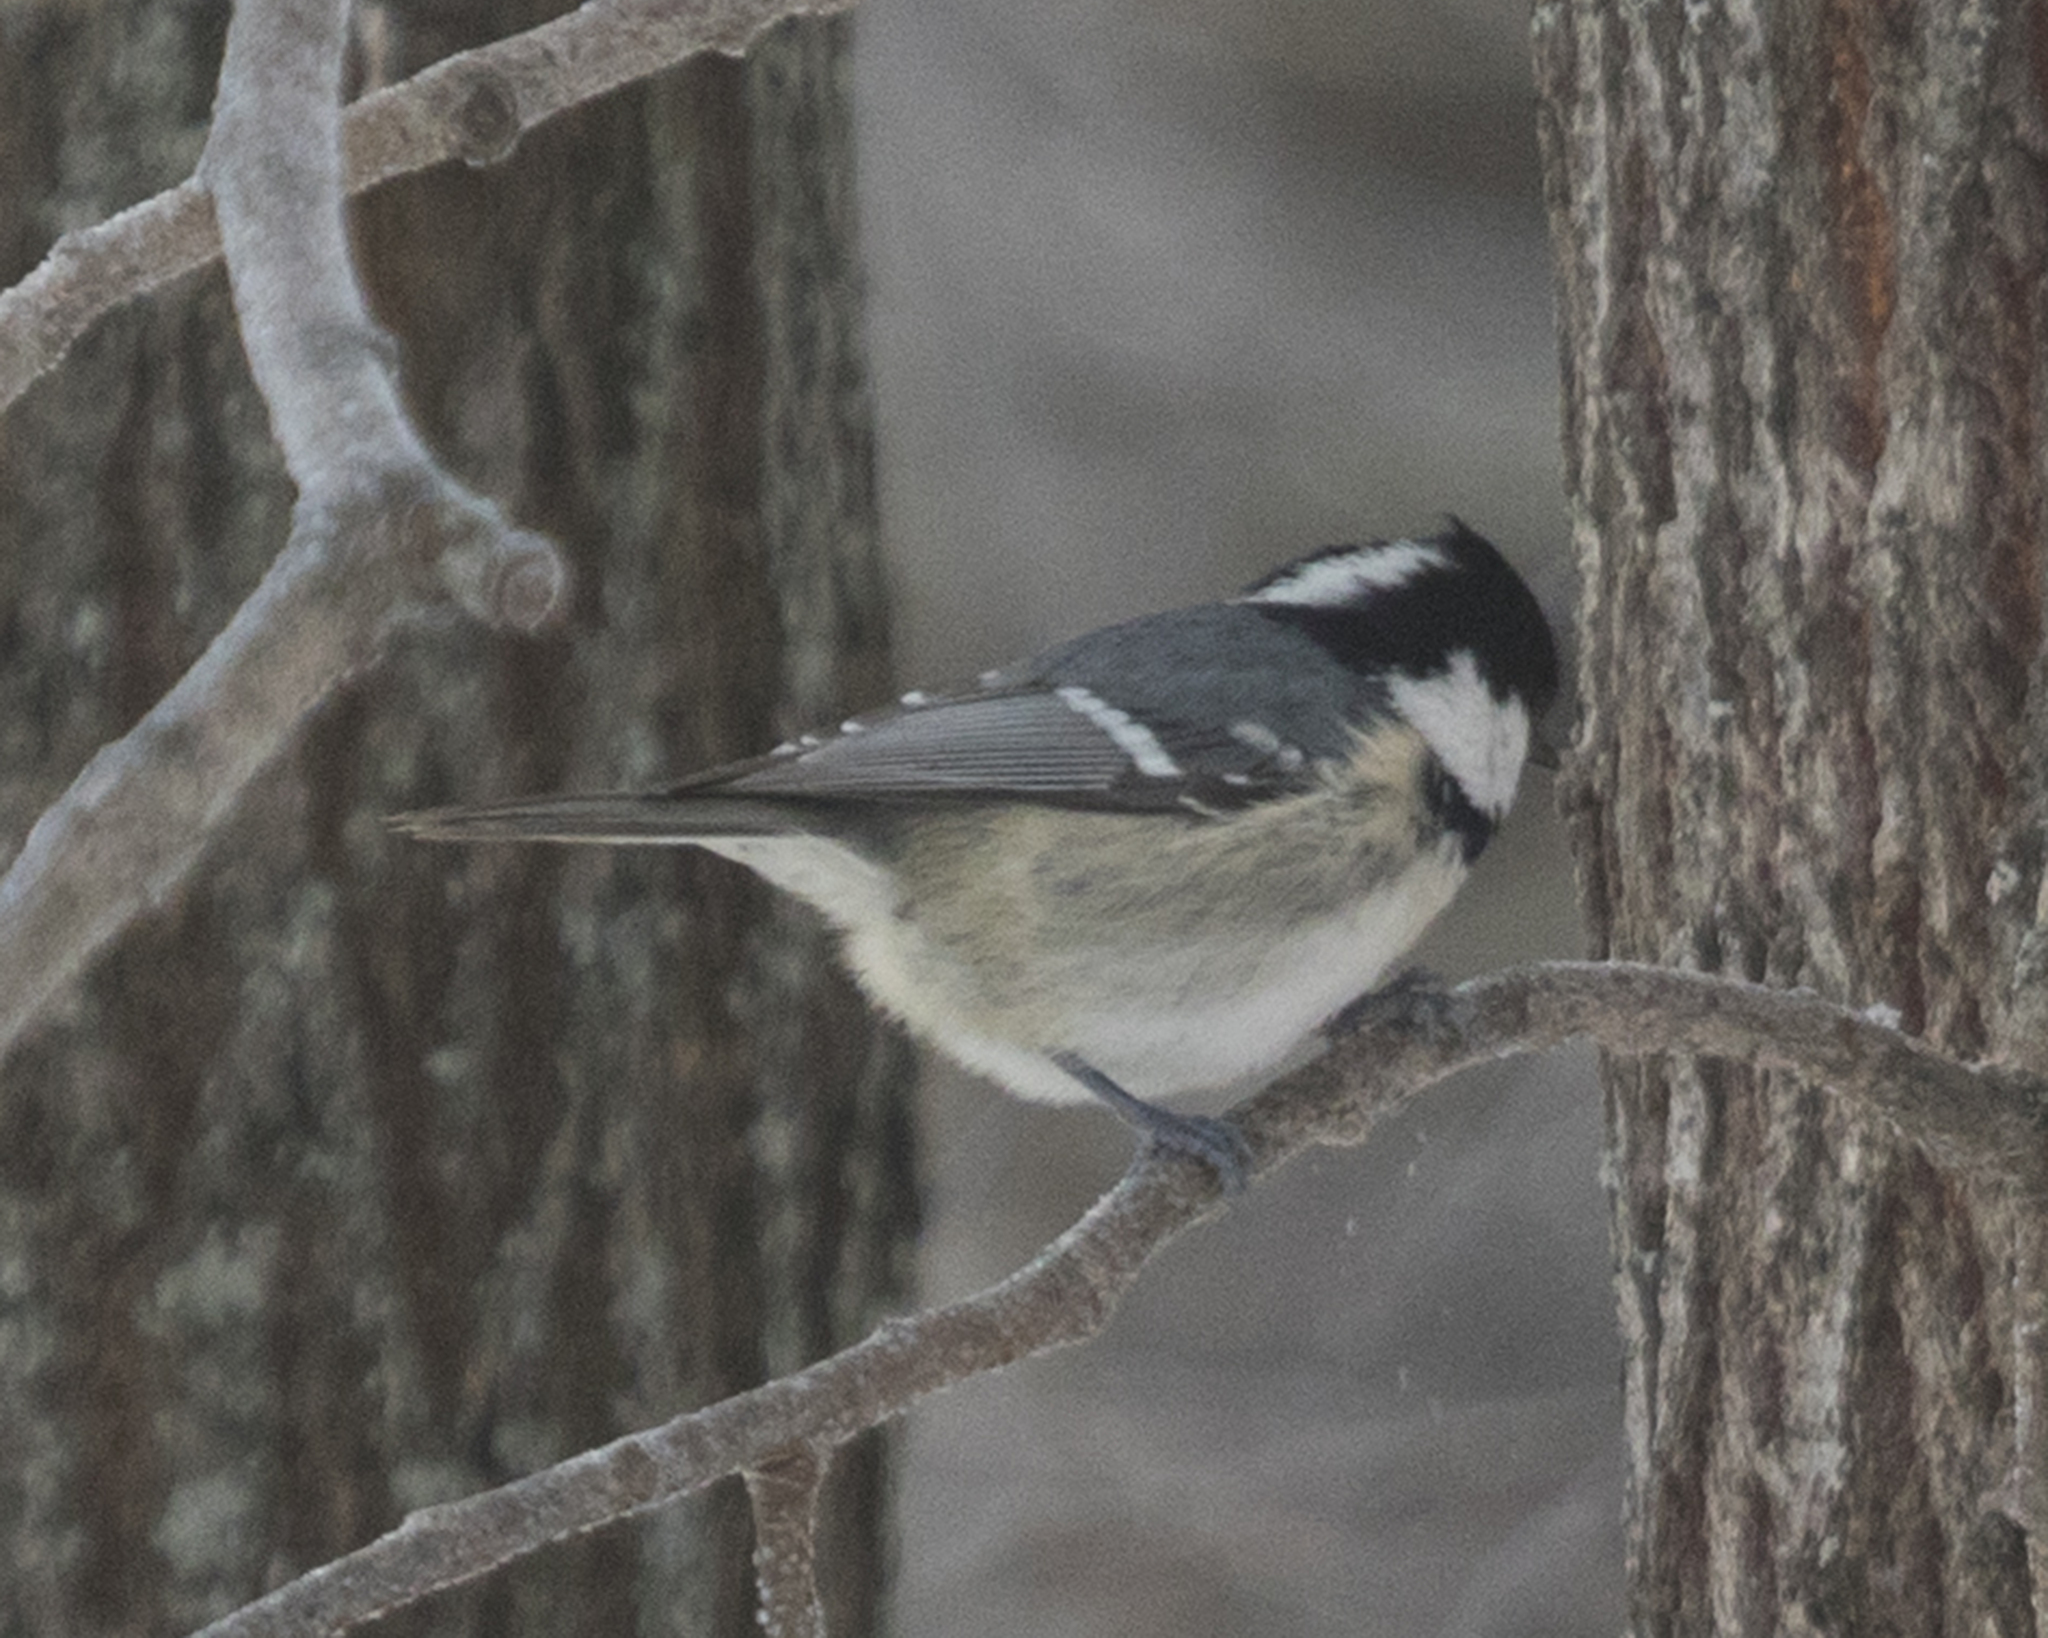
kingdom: Animalia
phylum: Chordata
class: Aves
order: Passeriformes
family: Paridae
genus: Periparus
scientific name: Periparus ater
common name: Coal tit
